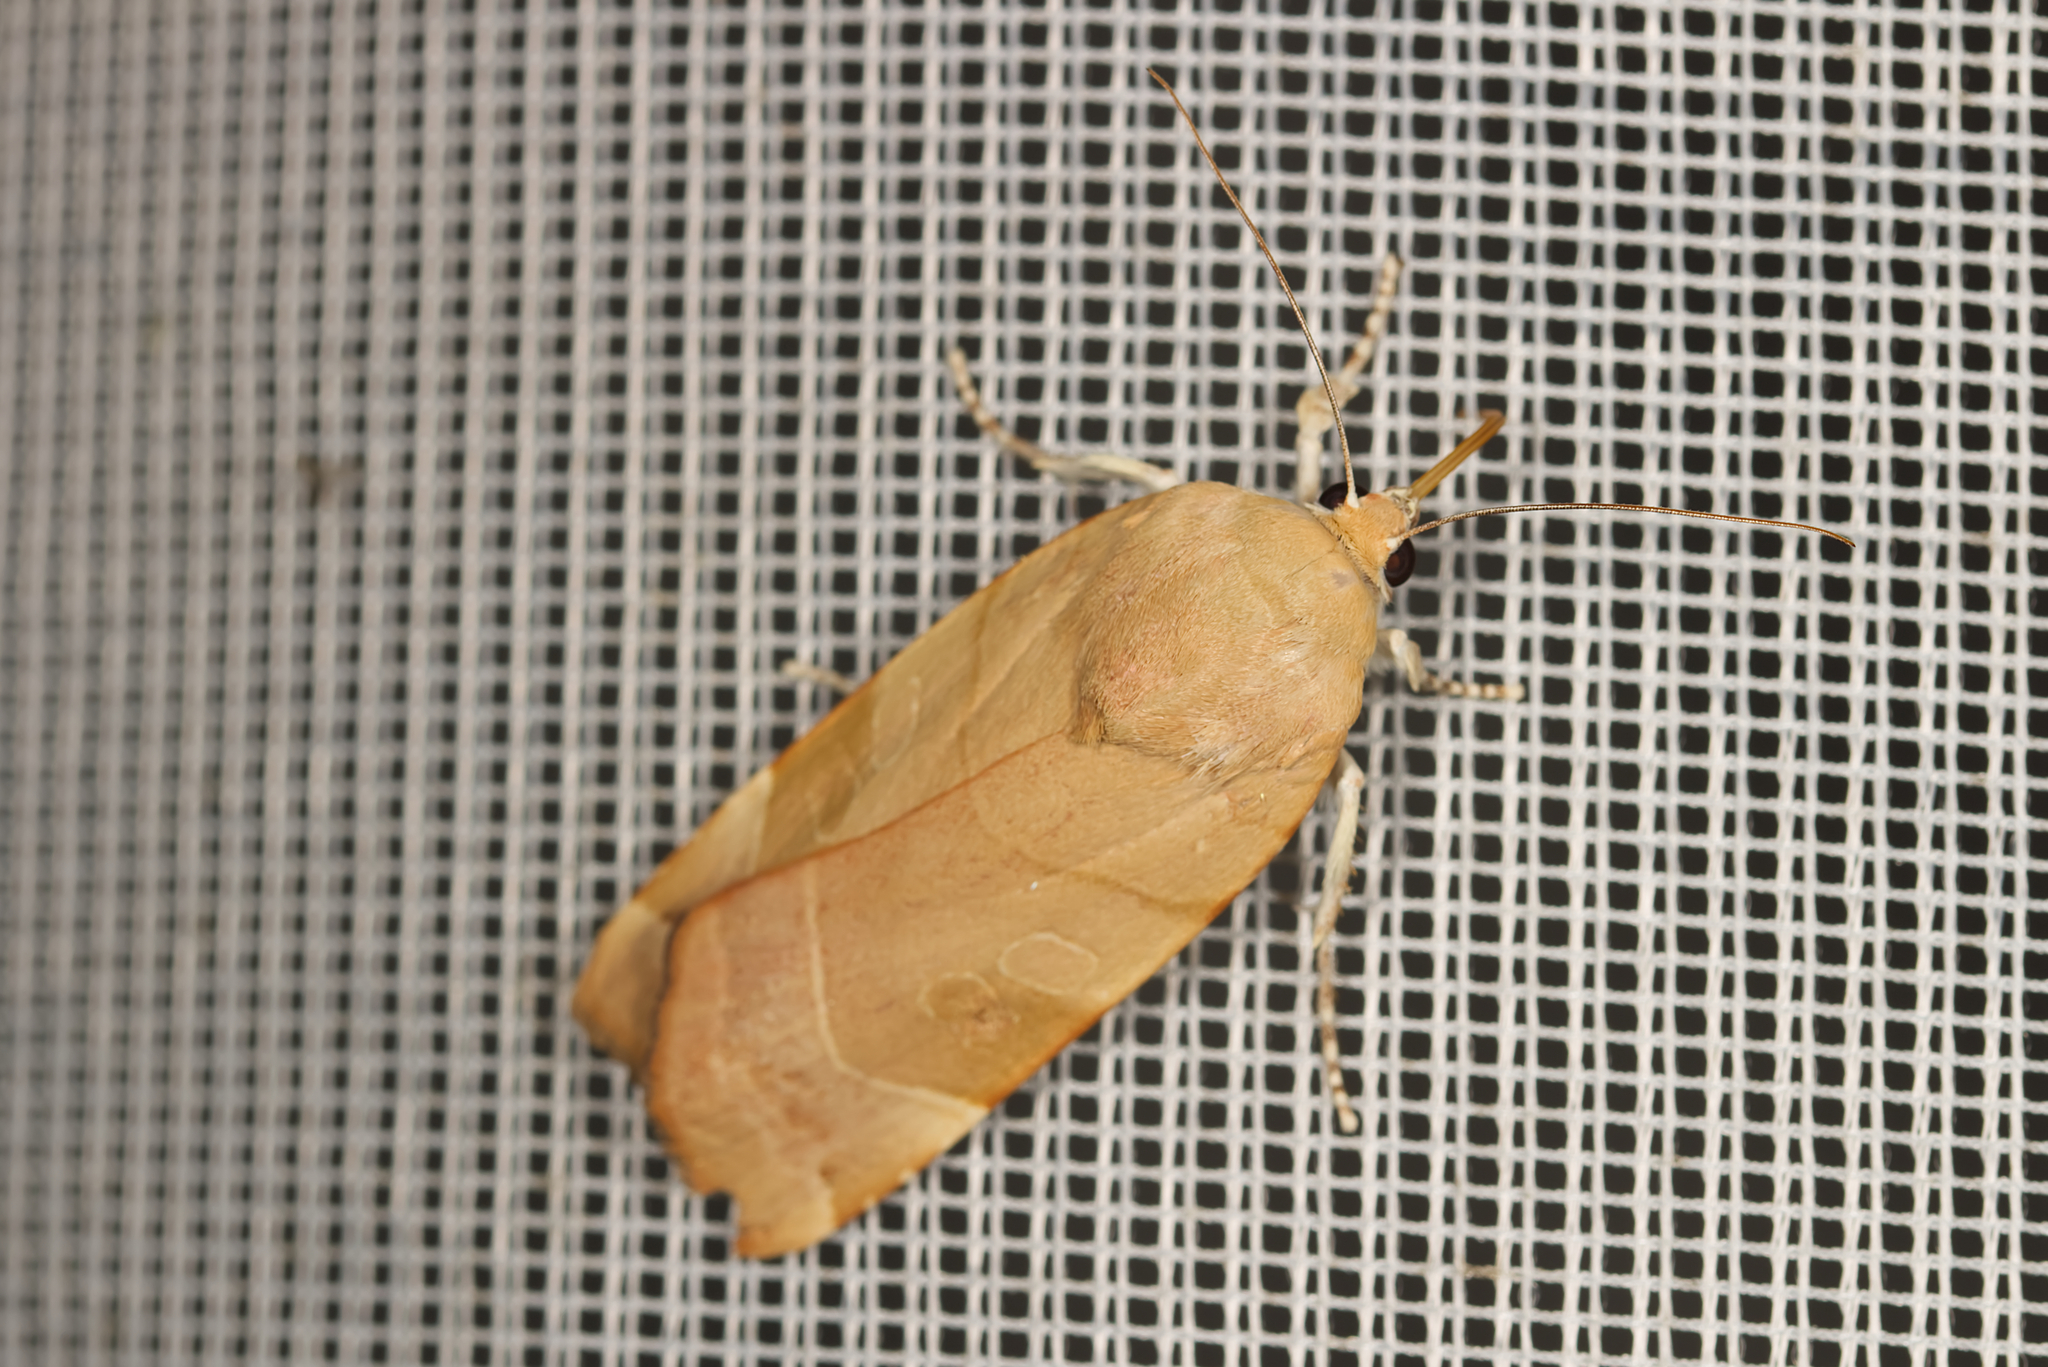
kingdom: Animalia
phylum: Arthropoda
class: Insecta
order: Lepidoptera
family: Noctuidae
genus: Noctua
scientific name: Noctua fimbriata
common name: Broad-bordered yellow underwing
